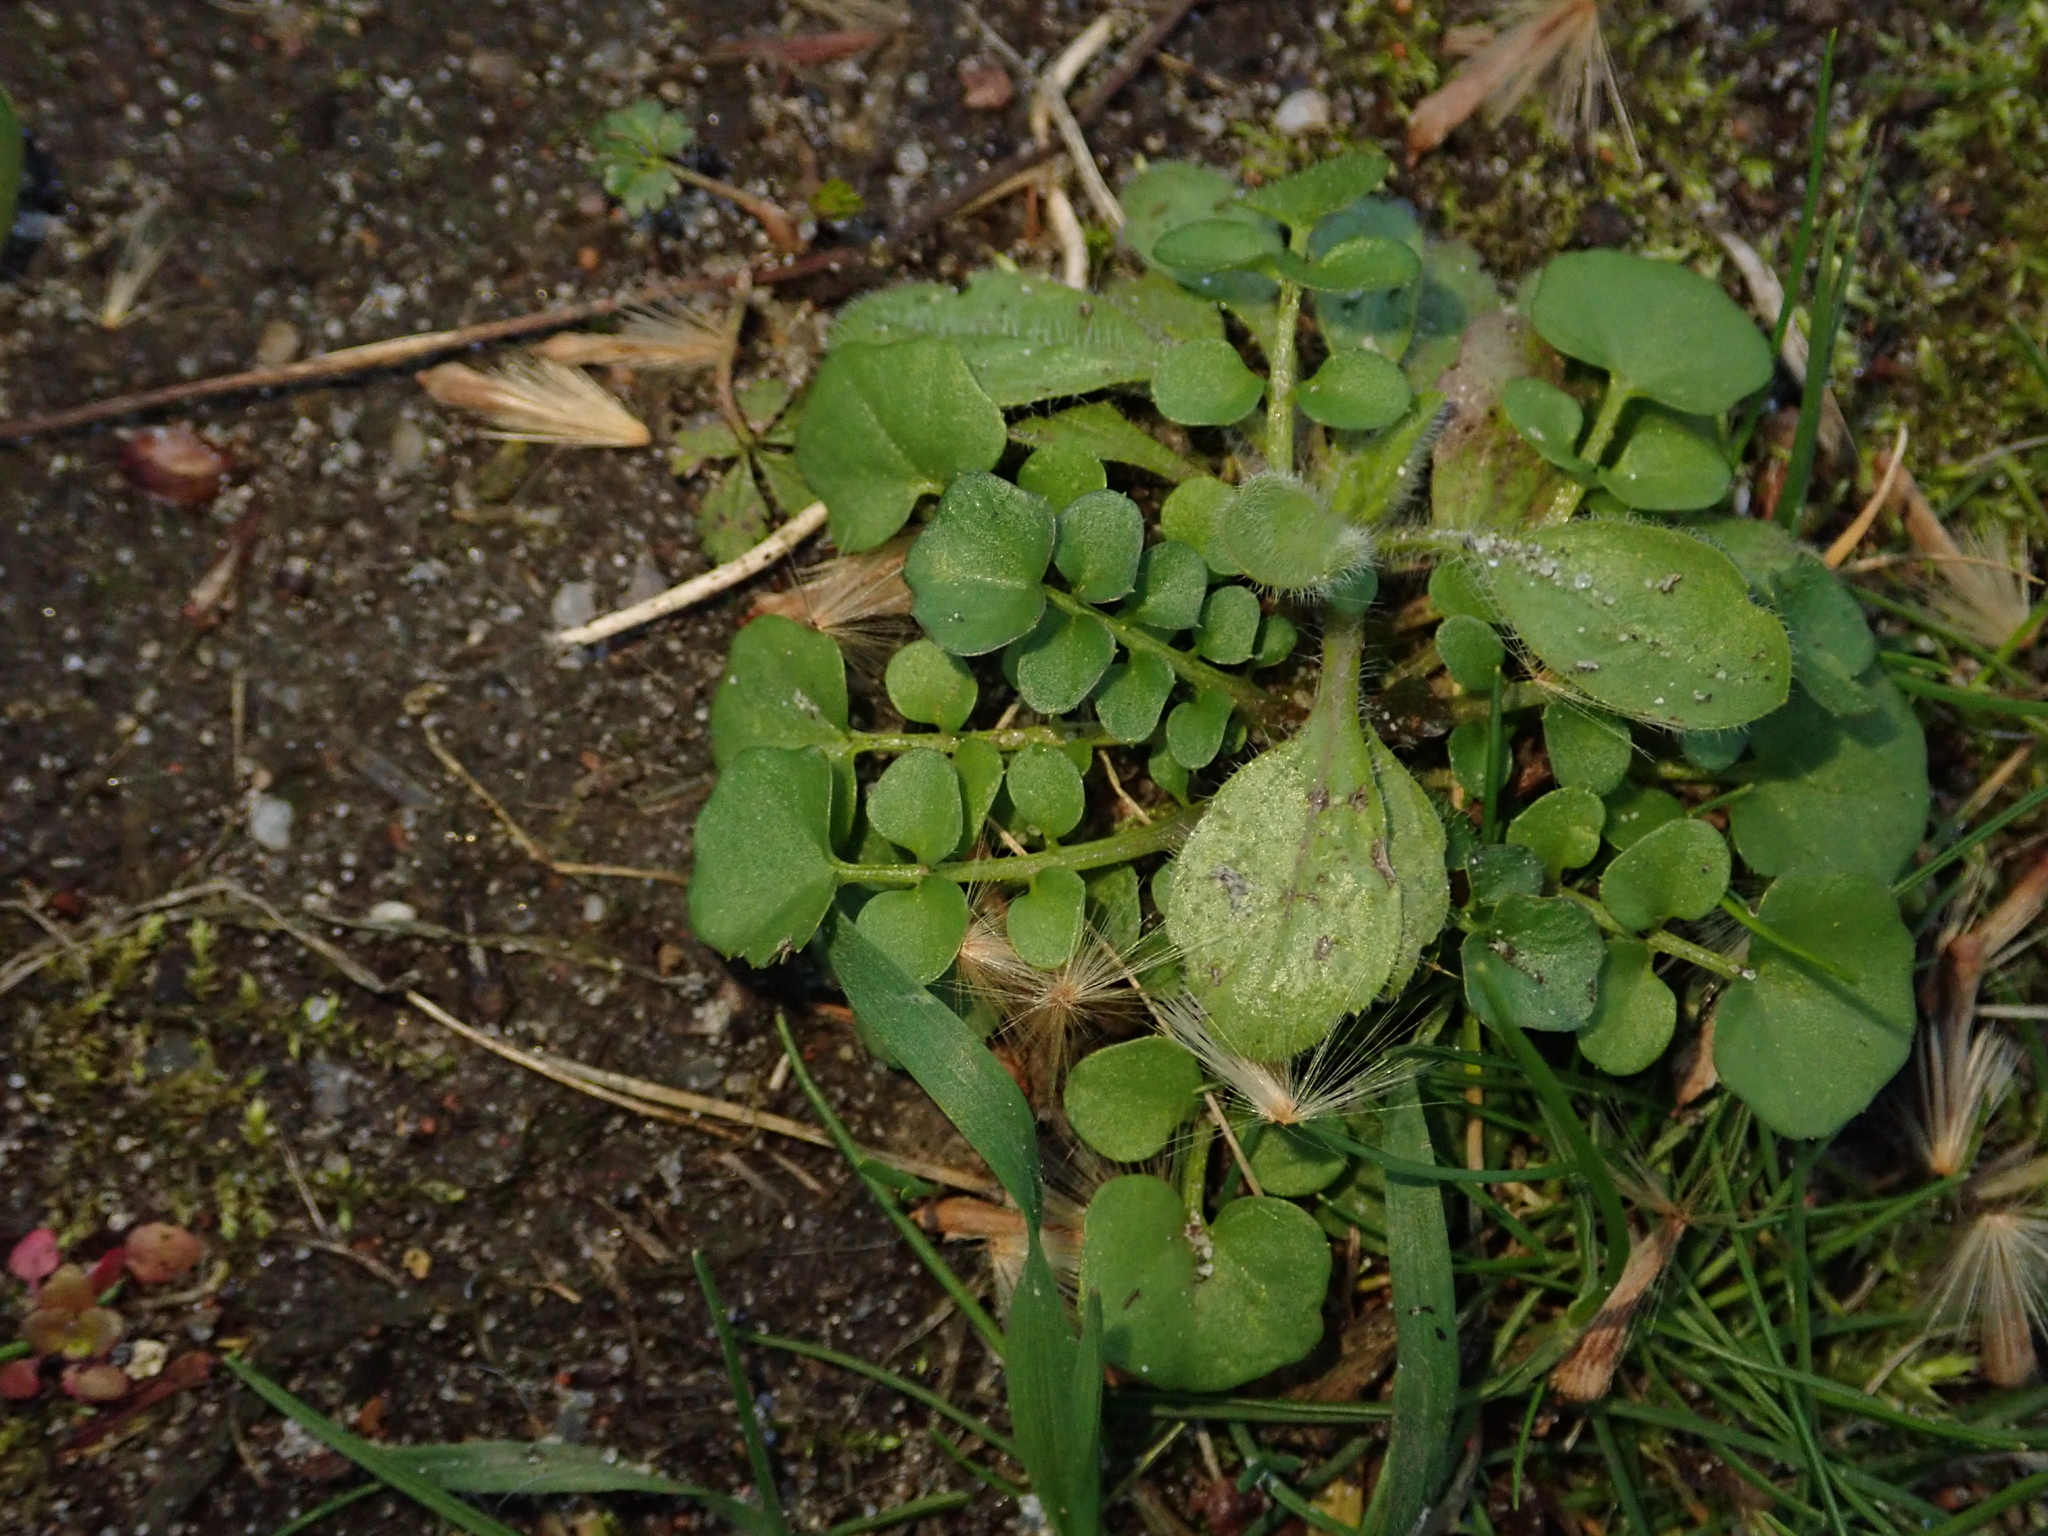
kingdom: Plantae
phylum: Tracheophyta
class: Magnoliopsida
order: Brassicales
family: Brassicaceae
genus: Cardamine
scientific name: Cardamine hirsuta
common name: Hairy bittercress
